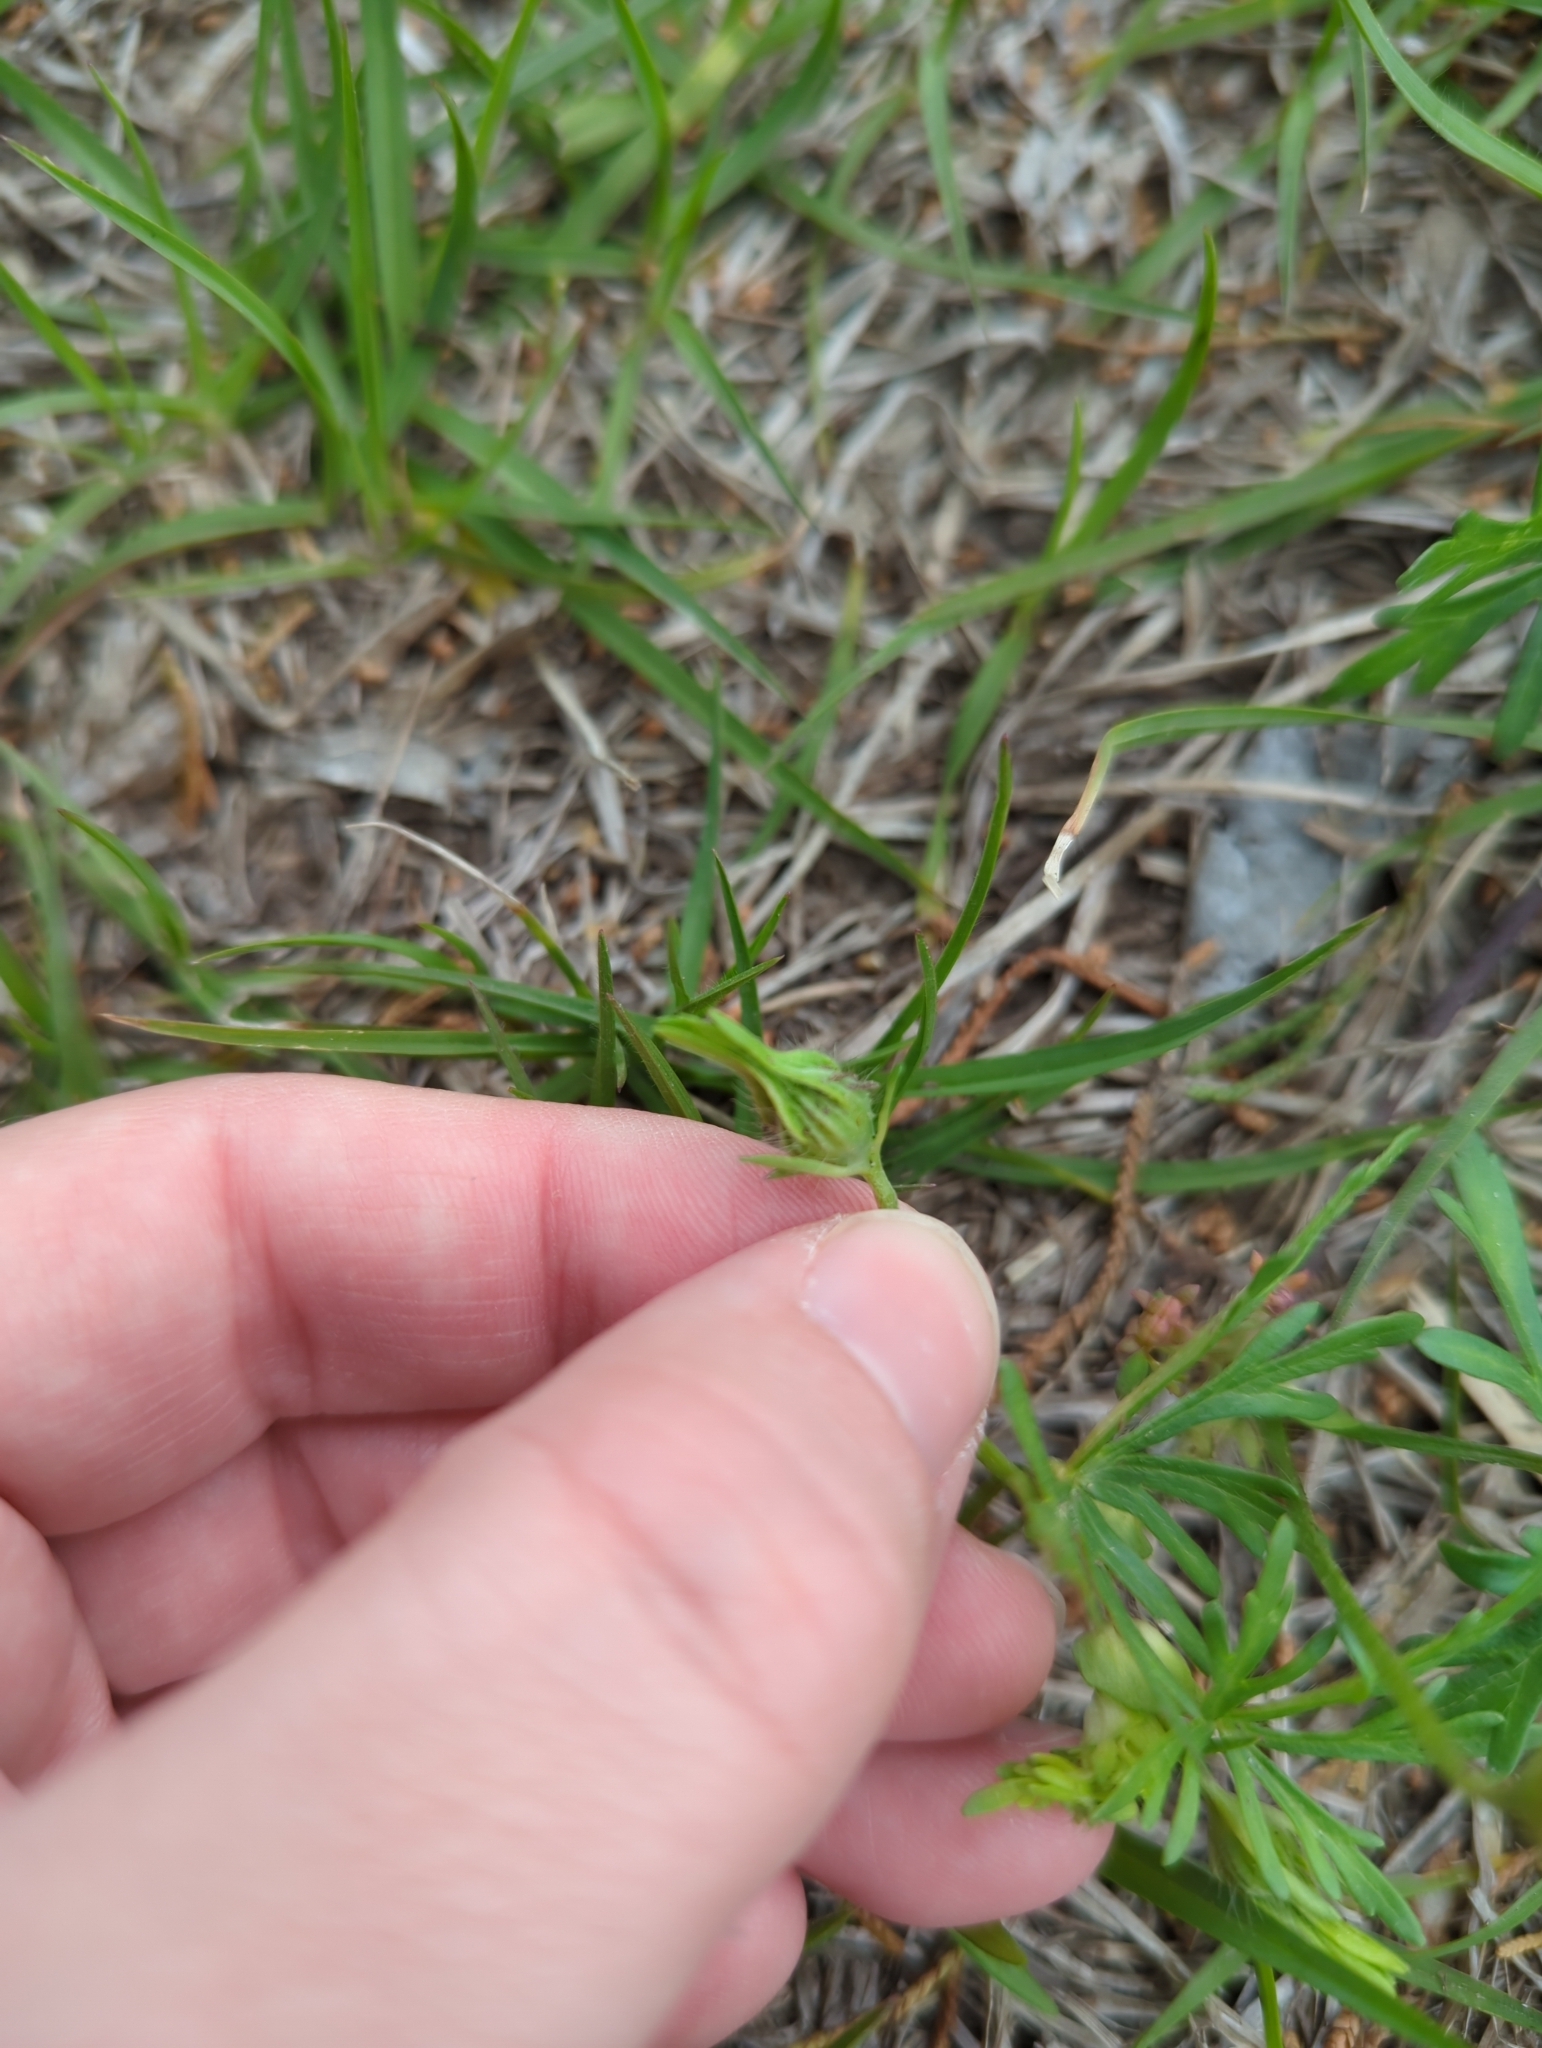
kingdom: Plantae
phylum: Tracheophyta
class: Magnoliopsida
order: Malvales
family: Malvaceae
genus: Callirhoe
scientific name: Callirhoe involucrata
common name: Purple poppy-mallow
